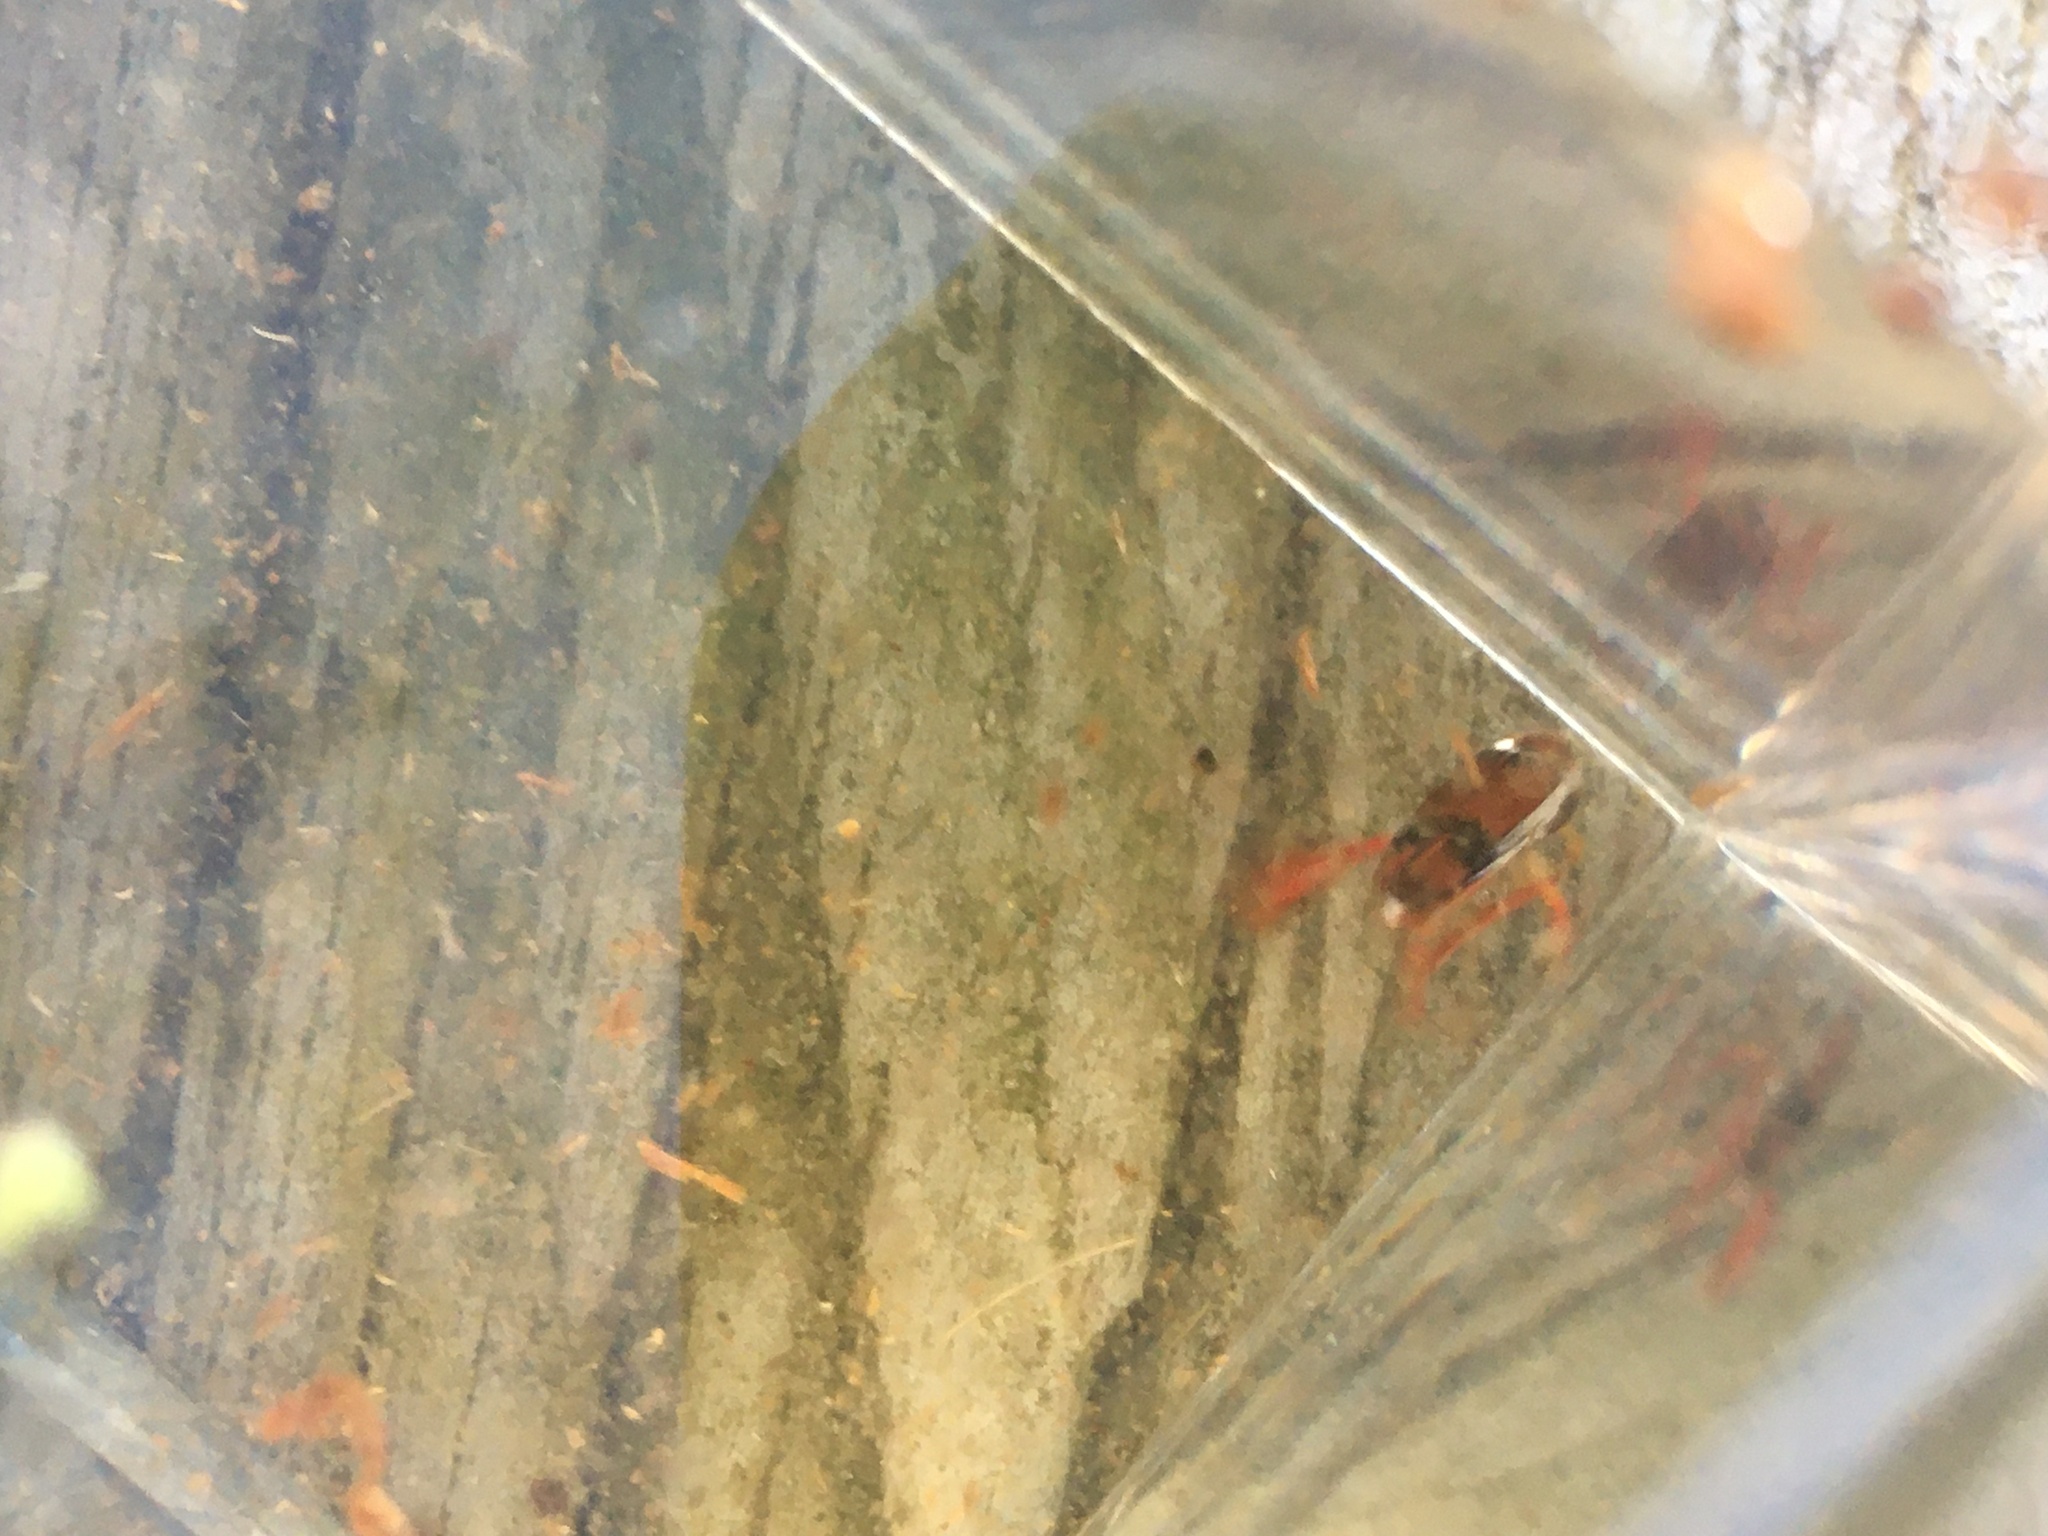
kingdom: Animalia
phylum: Arthropoda
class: Insecta
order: Hemiptera
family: Corixidae
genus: Hesperocorixa
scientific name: Hesperocorixa brimleyi
